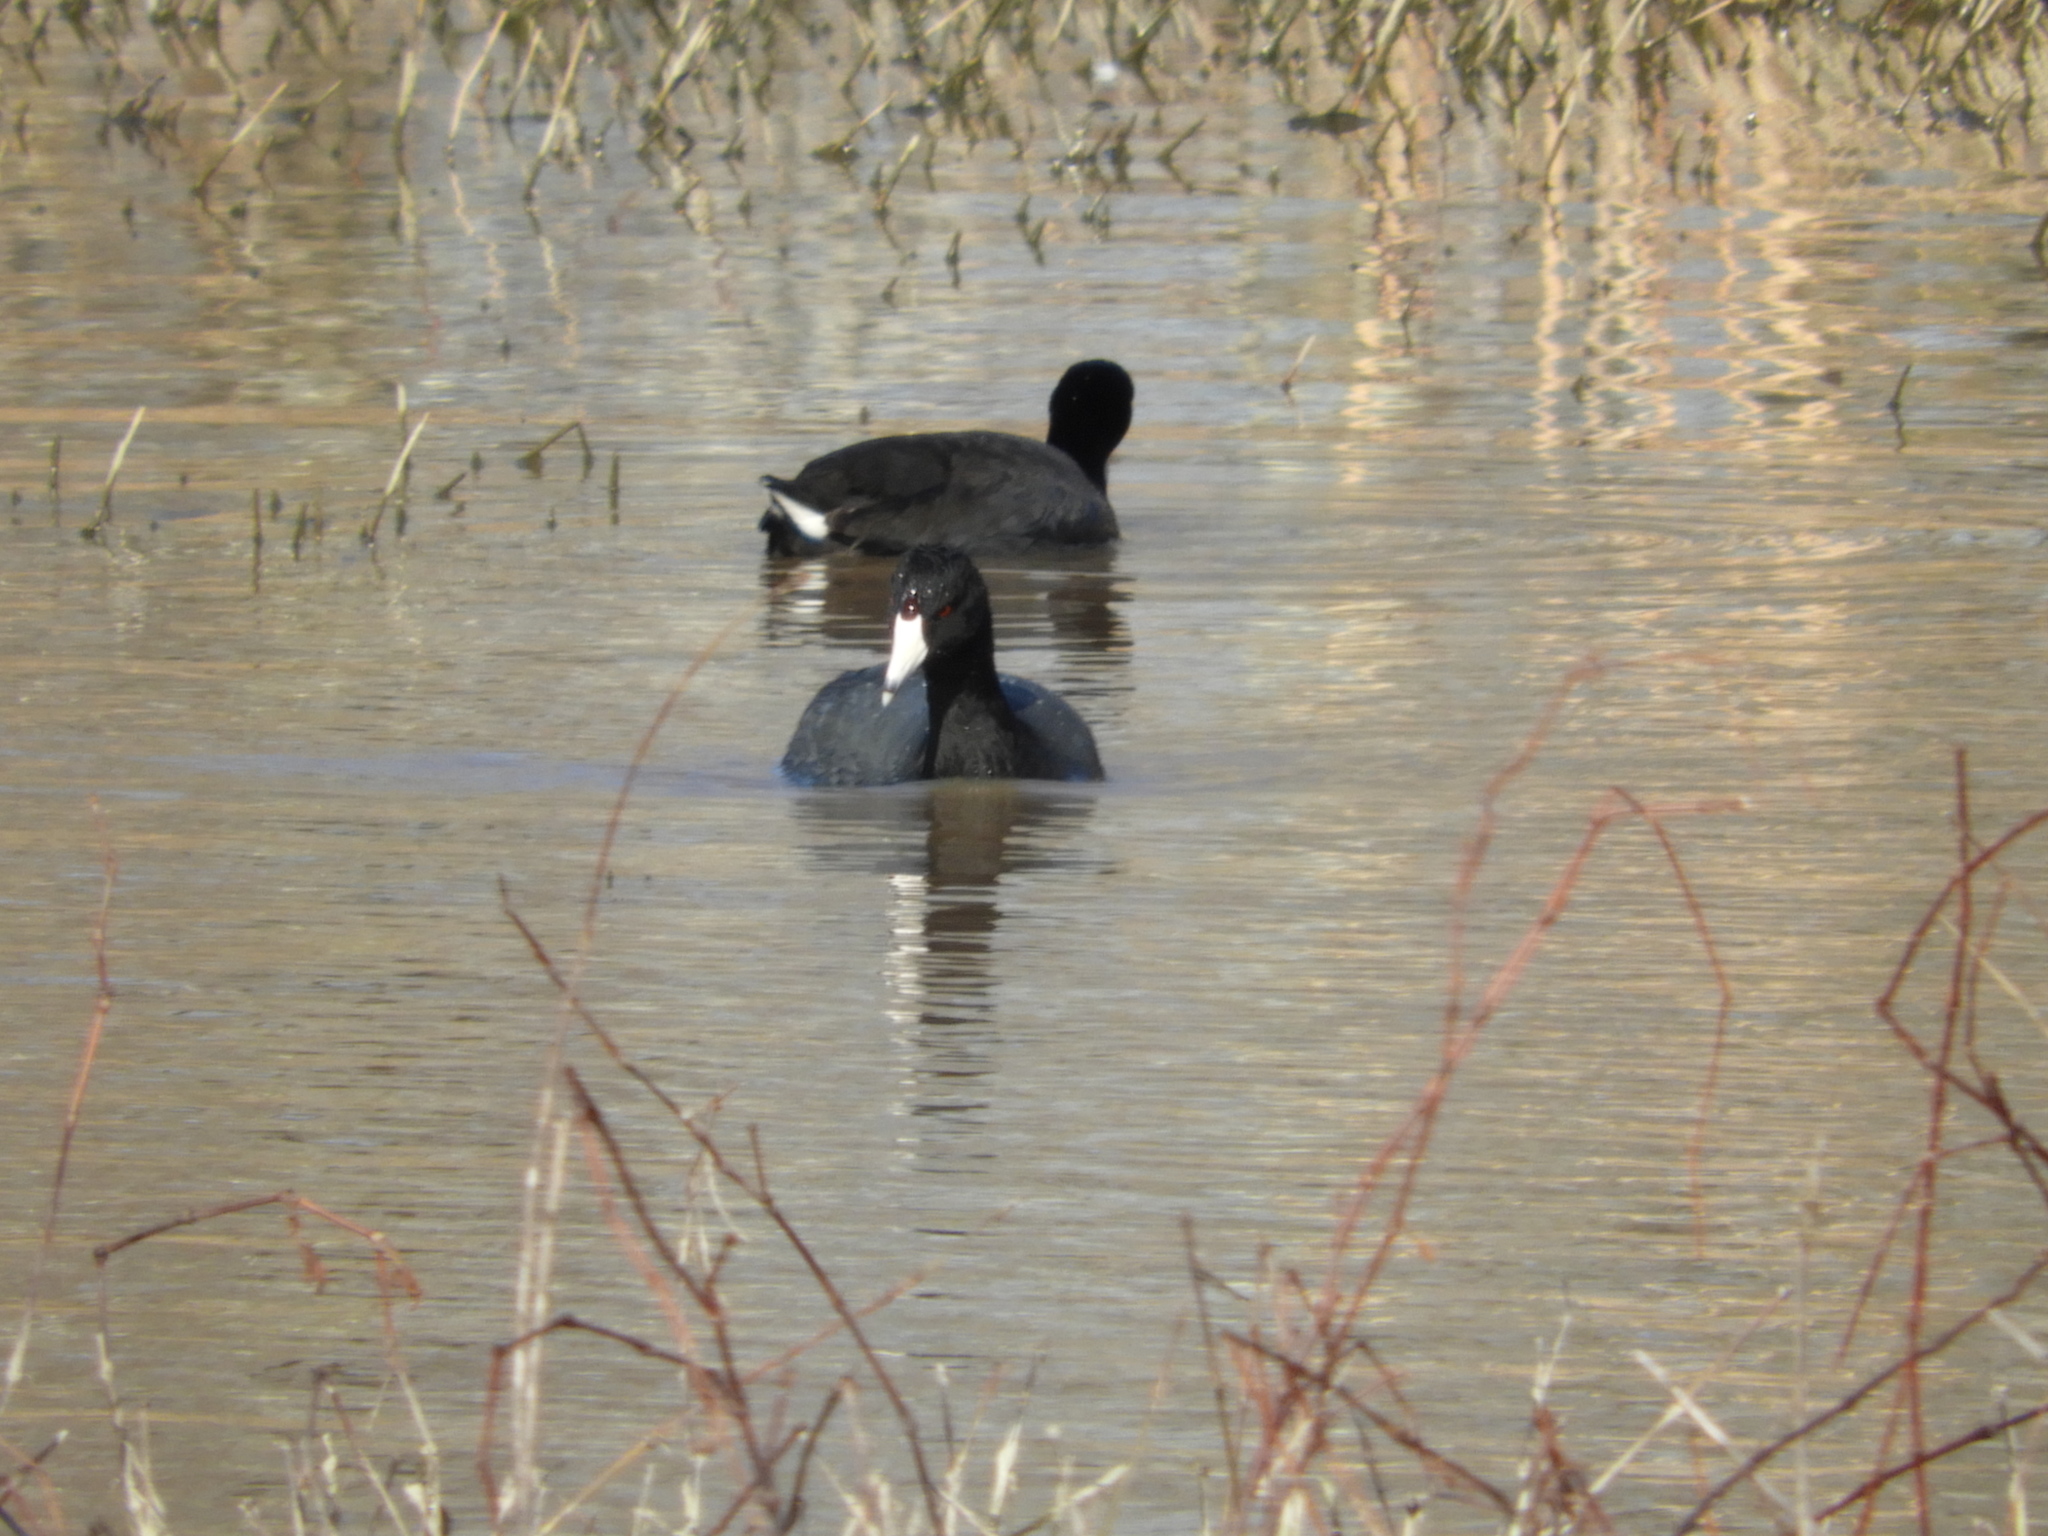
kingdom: Animalia
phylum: Chordata
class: Aves
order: Gruiformes
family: Rallidae
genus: Fulica
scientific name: Fulica americana
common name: American coot
